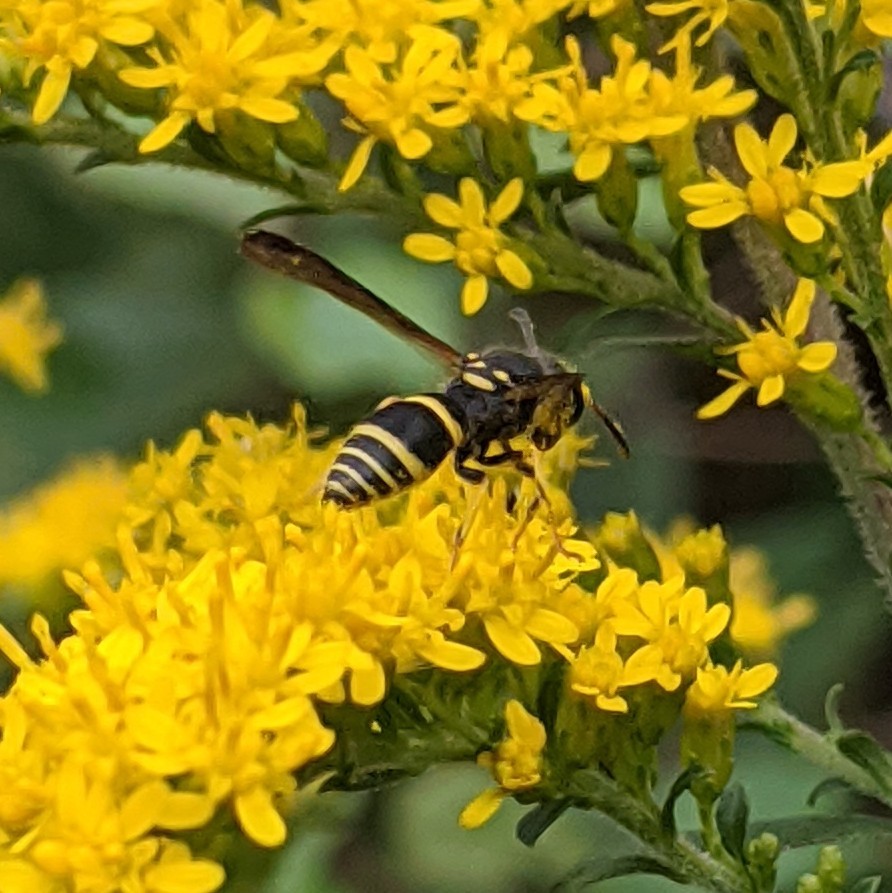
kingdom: Animalia
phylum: Arthropoda
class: Insecta
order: Hymenoptera
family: Vespidae
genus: Ancistrocerus
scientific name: Ancistrocerus adiabatus
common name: Bramble mason wasp
